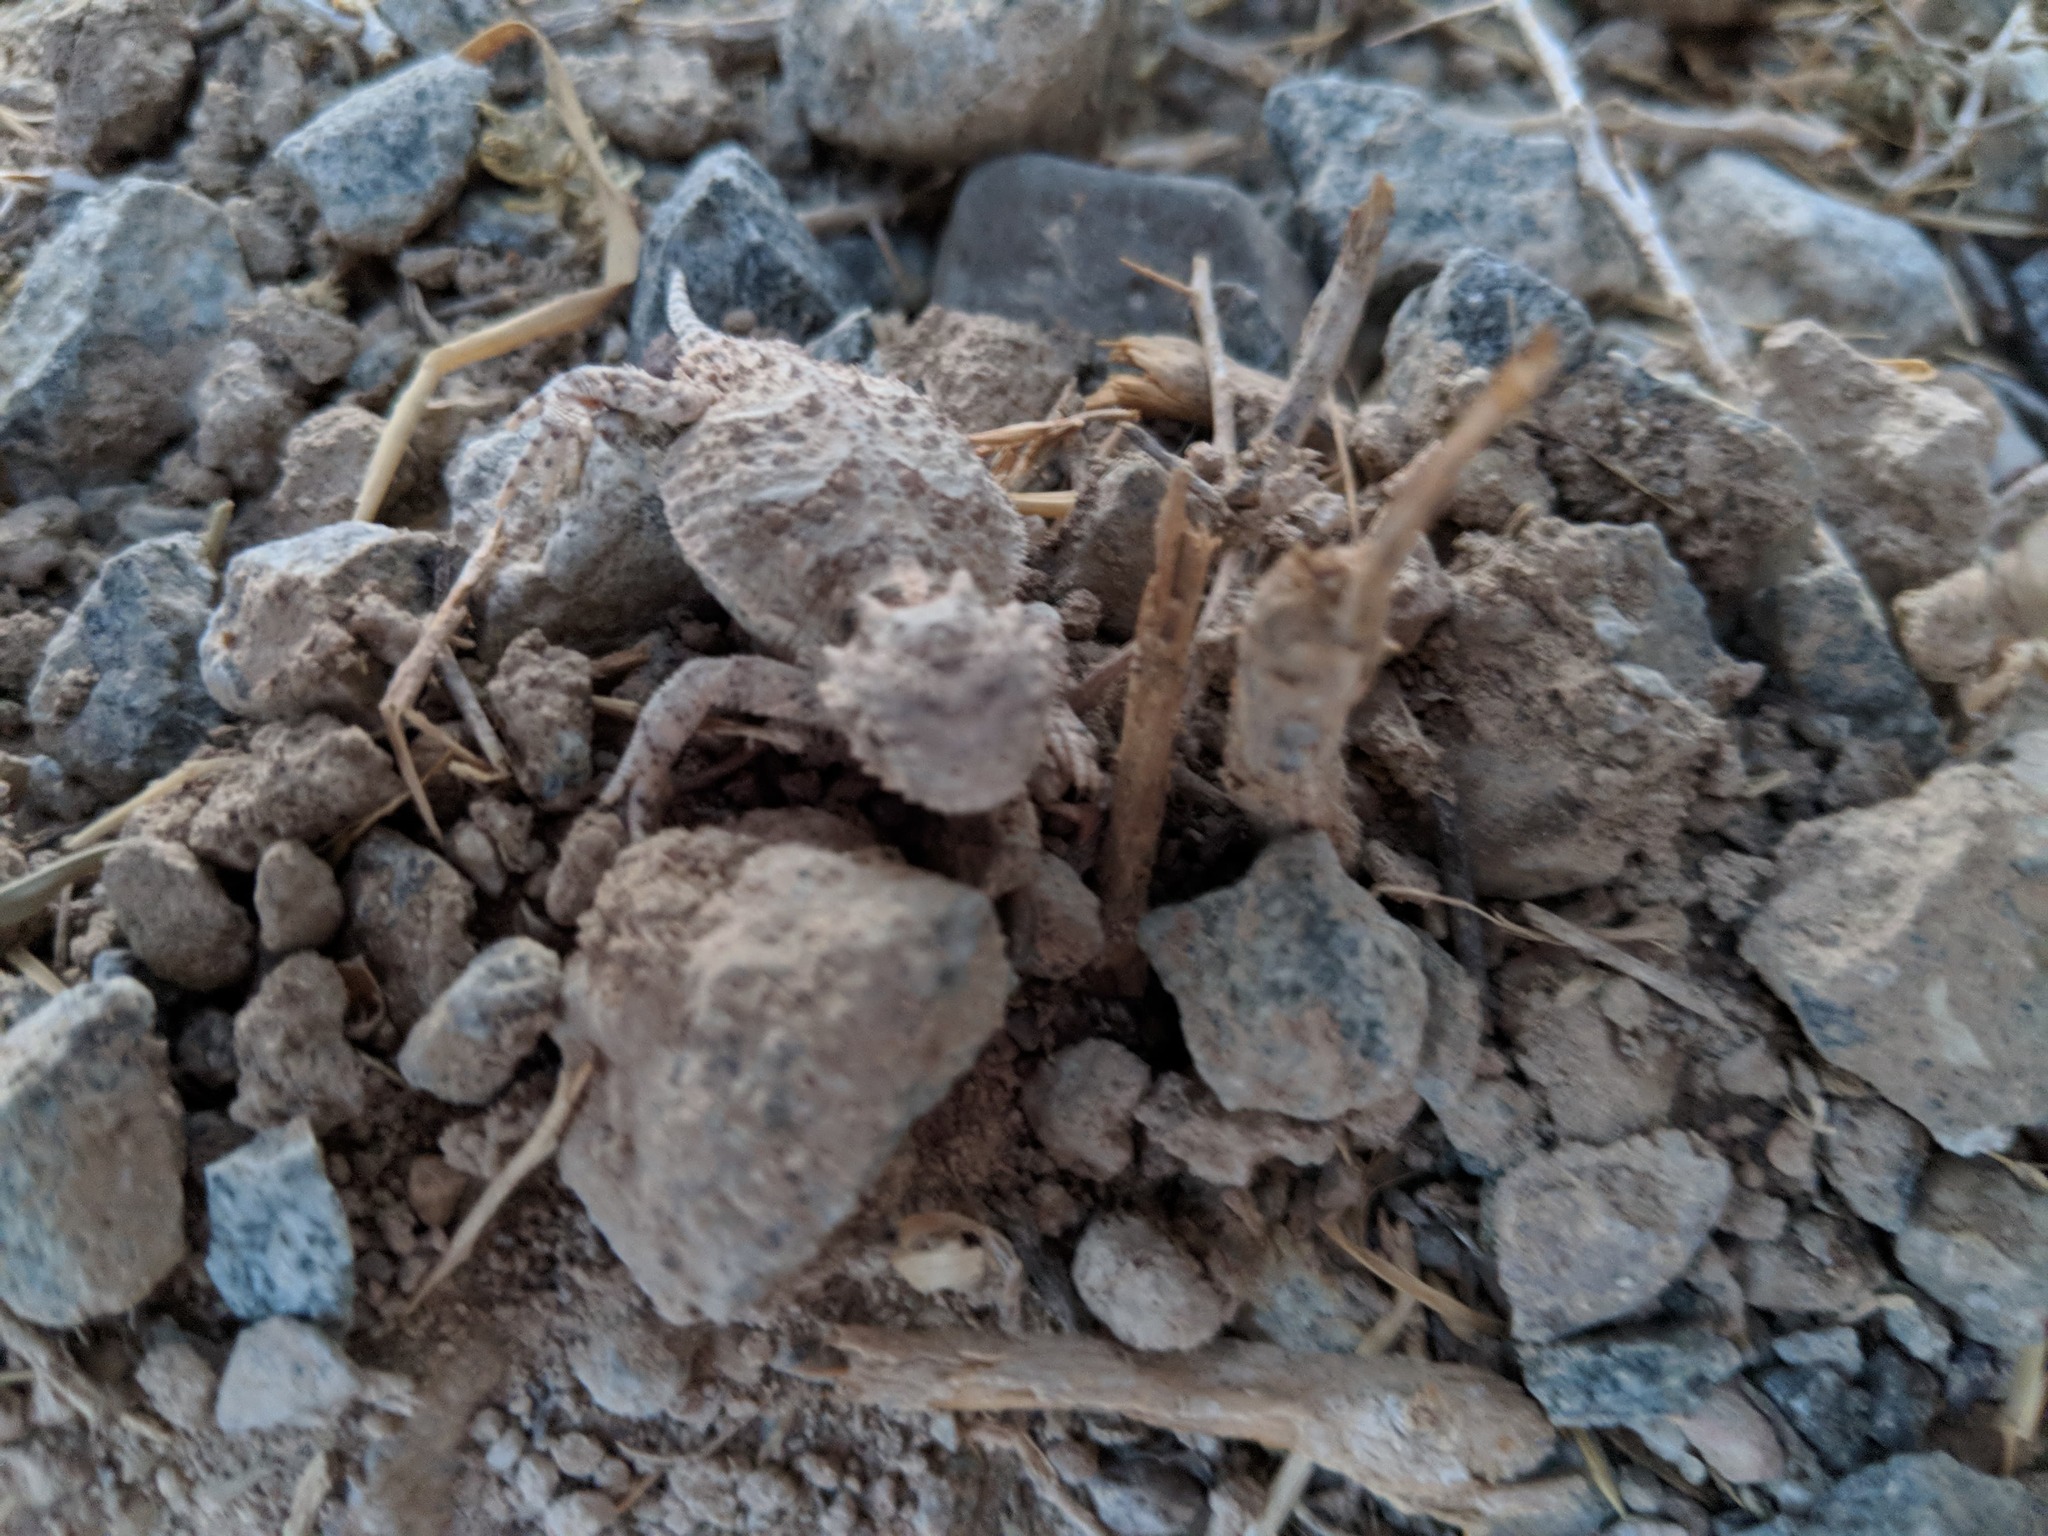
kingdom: Animalia
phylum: Chordata
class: Squamata
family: Phrynosomatidae
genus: Phrynosoma
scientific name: Phrynosoma platyrhinos
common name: Desert horned lizard
